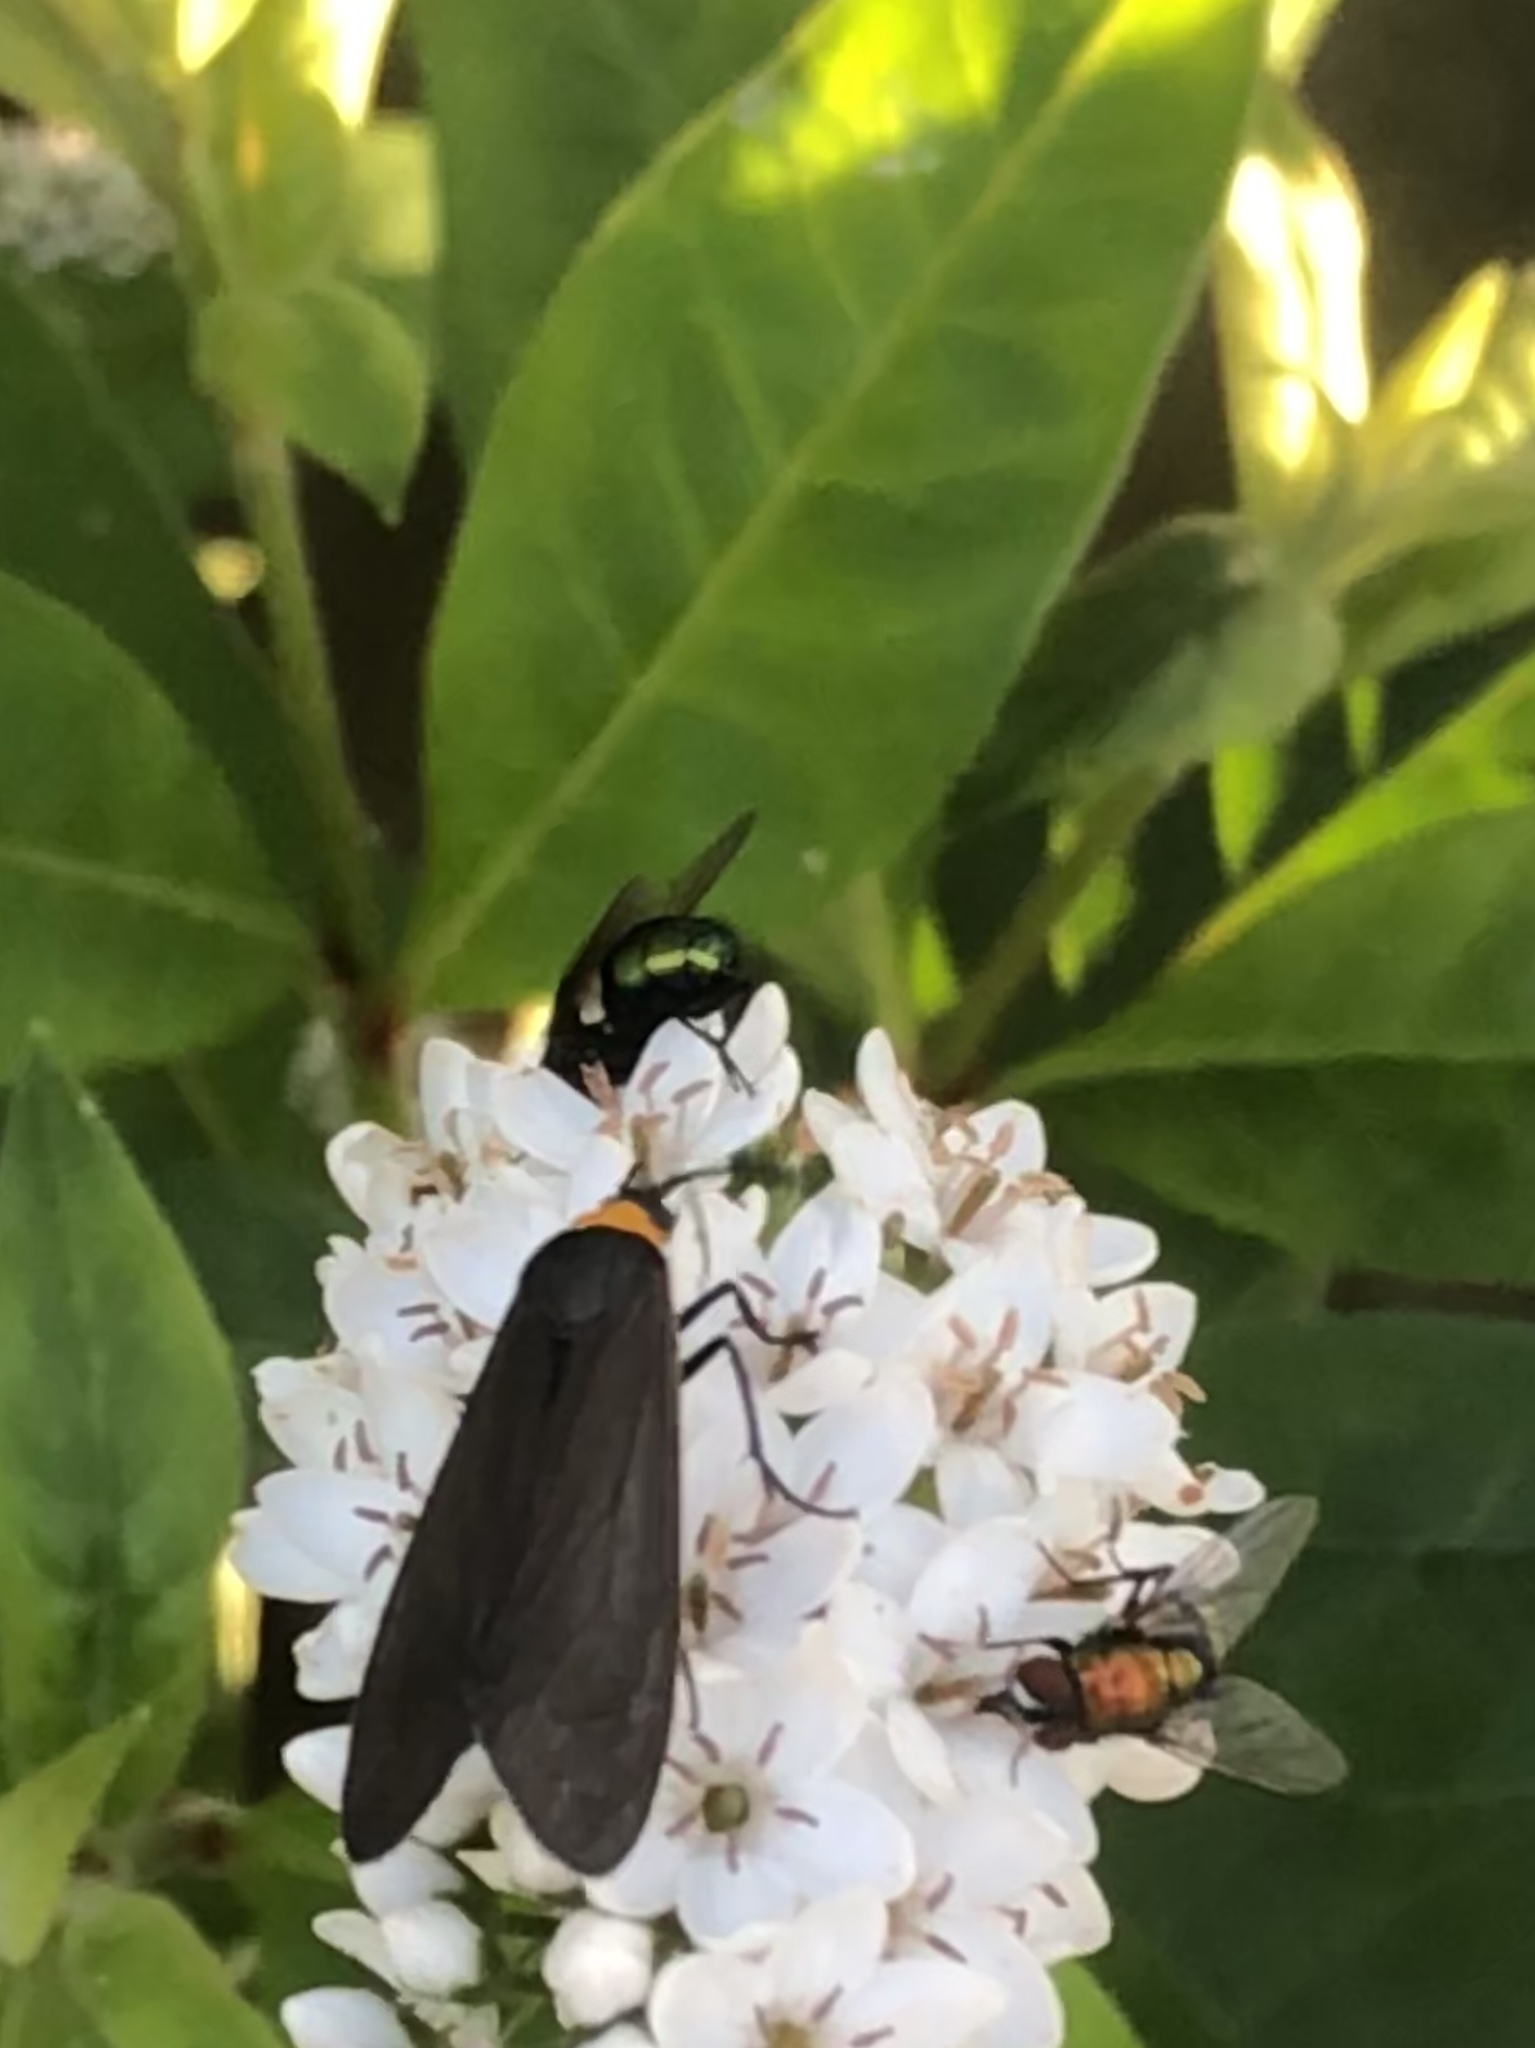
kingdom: Animalia
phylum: Arthropoda
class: Insecta
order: Lepidoptera
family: Erebidae
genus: Cisseps
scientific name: Cisseps fulvicollis
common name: Yellow-collared scape moth
